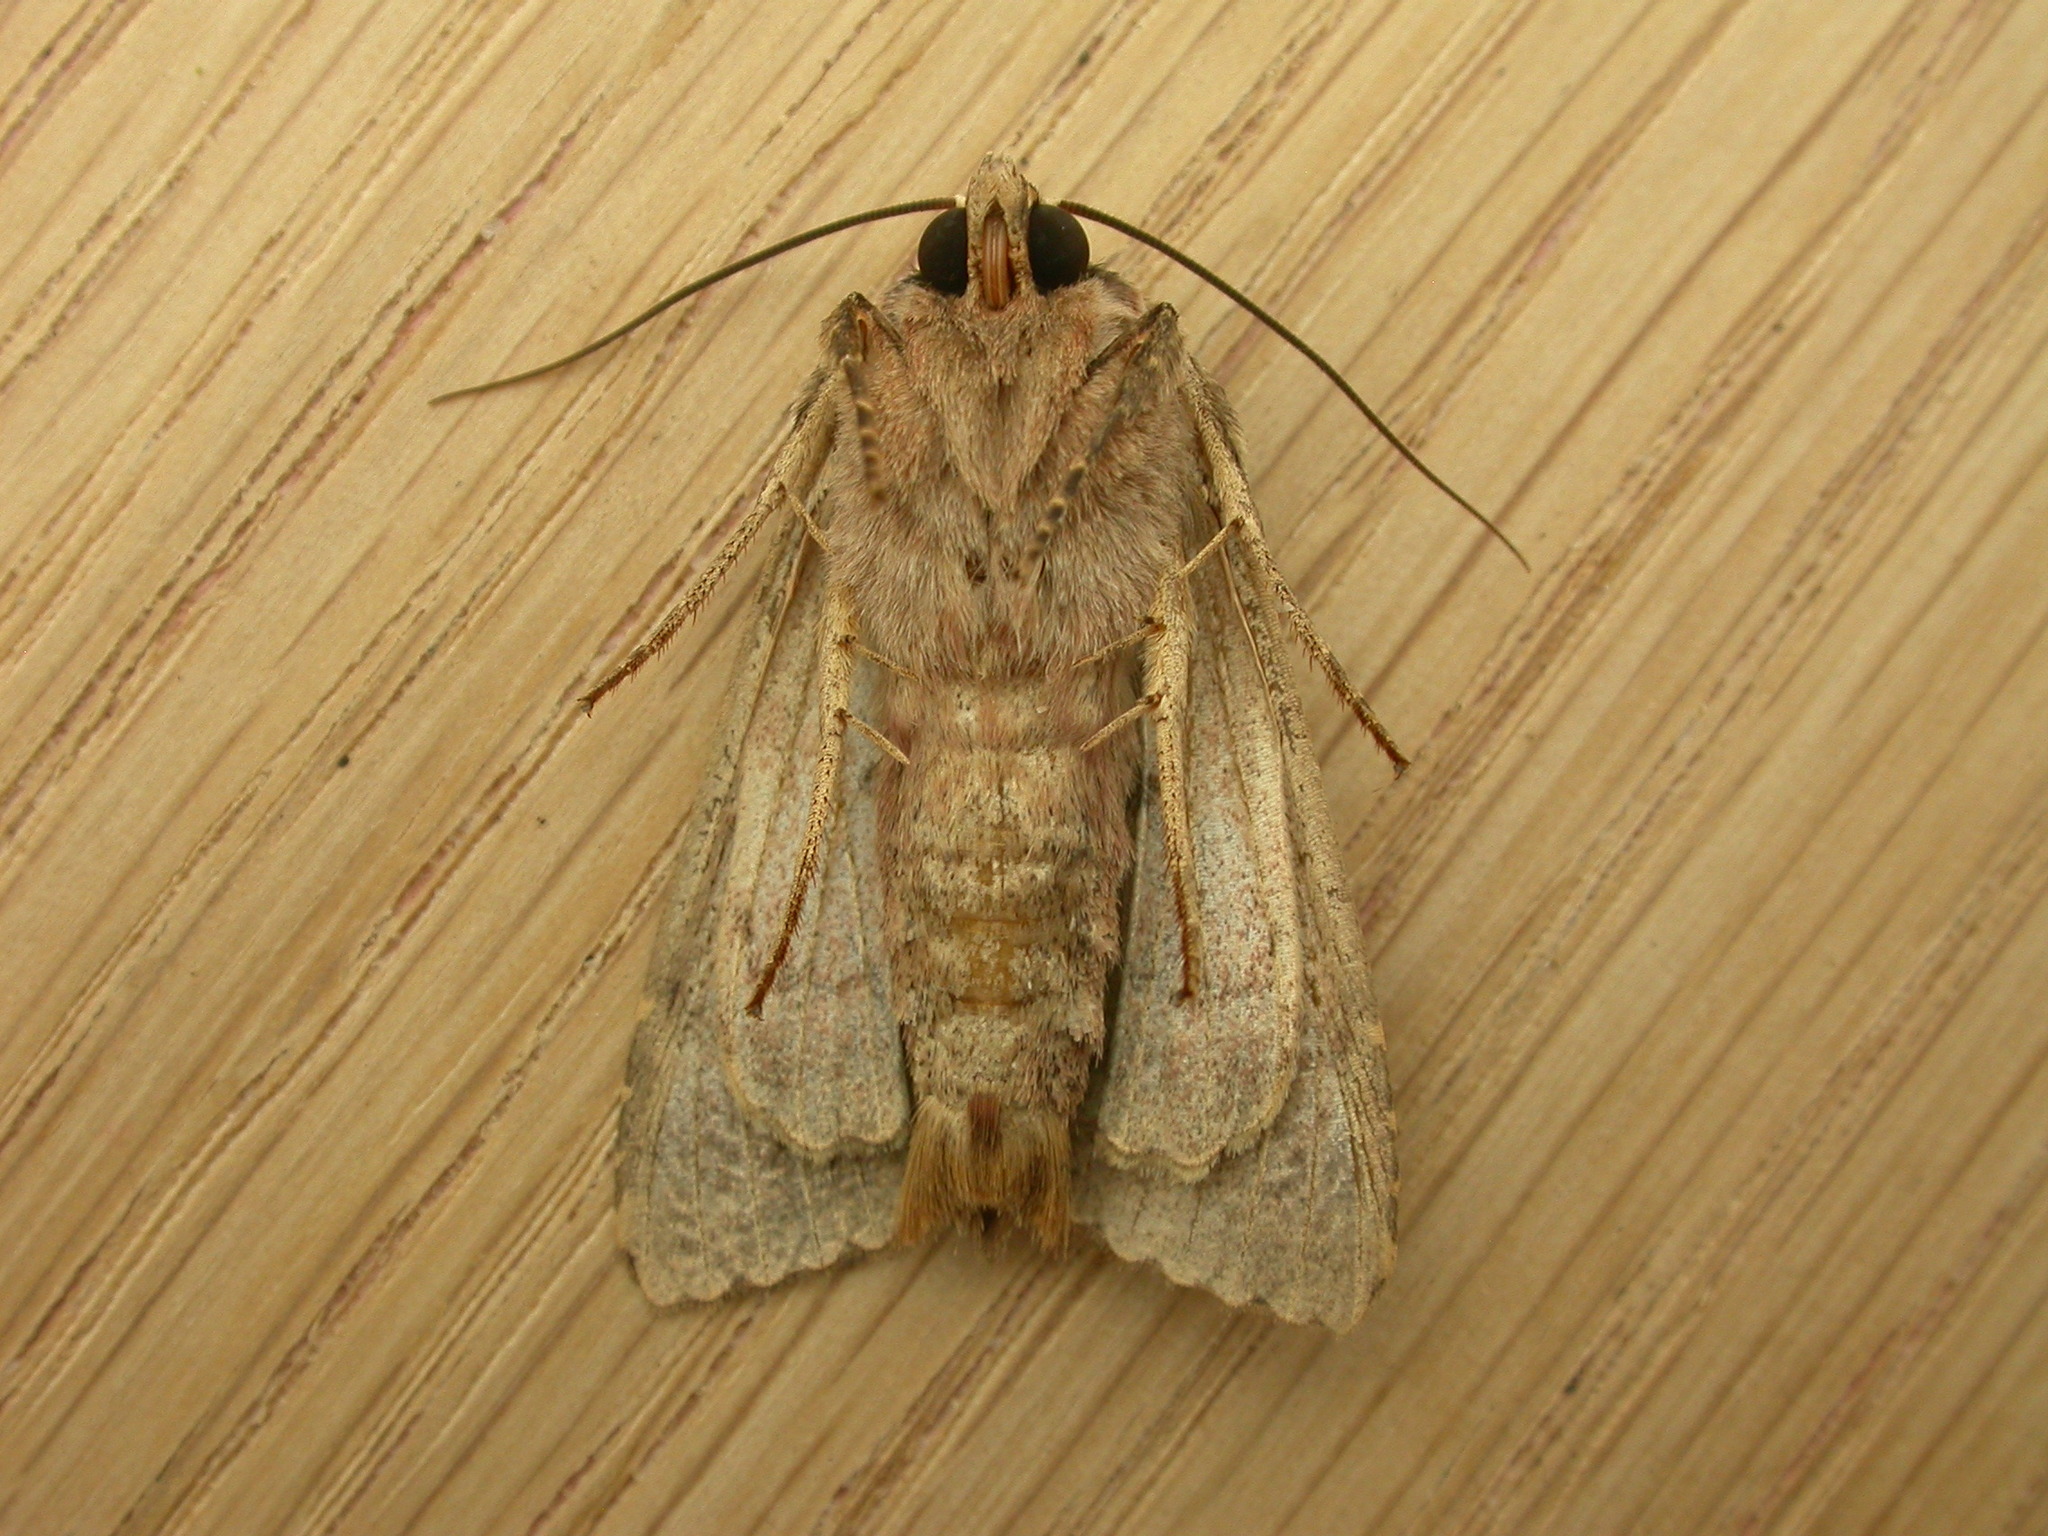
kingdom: Animalia
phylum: Arthropoda
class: Insecta
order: Lepidoptera
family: Noctuidae
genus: Apamea
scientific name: Apamea monoglypha
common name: Dark arches
